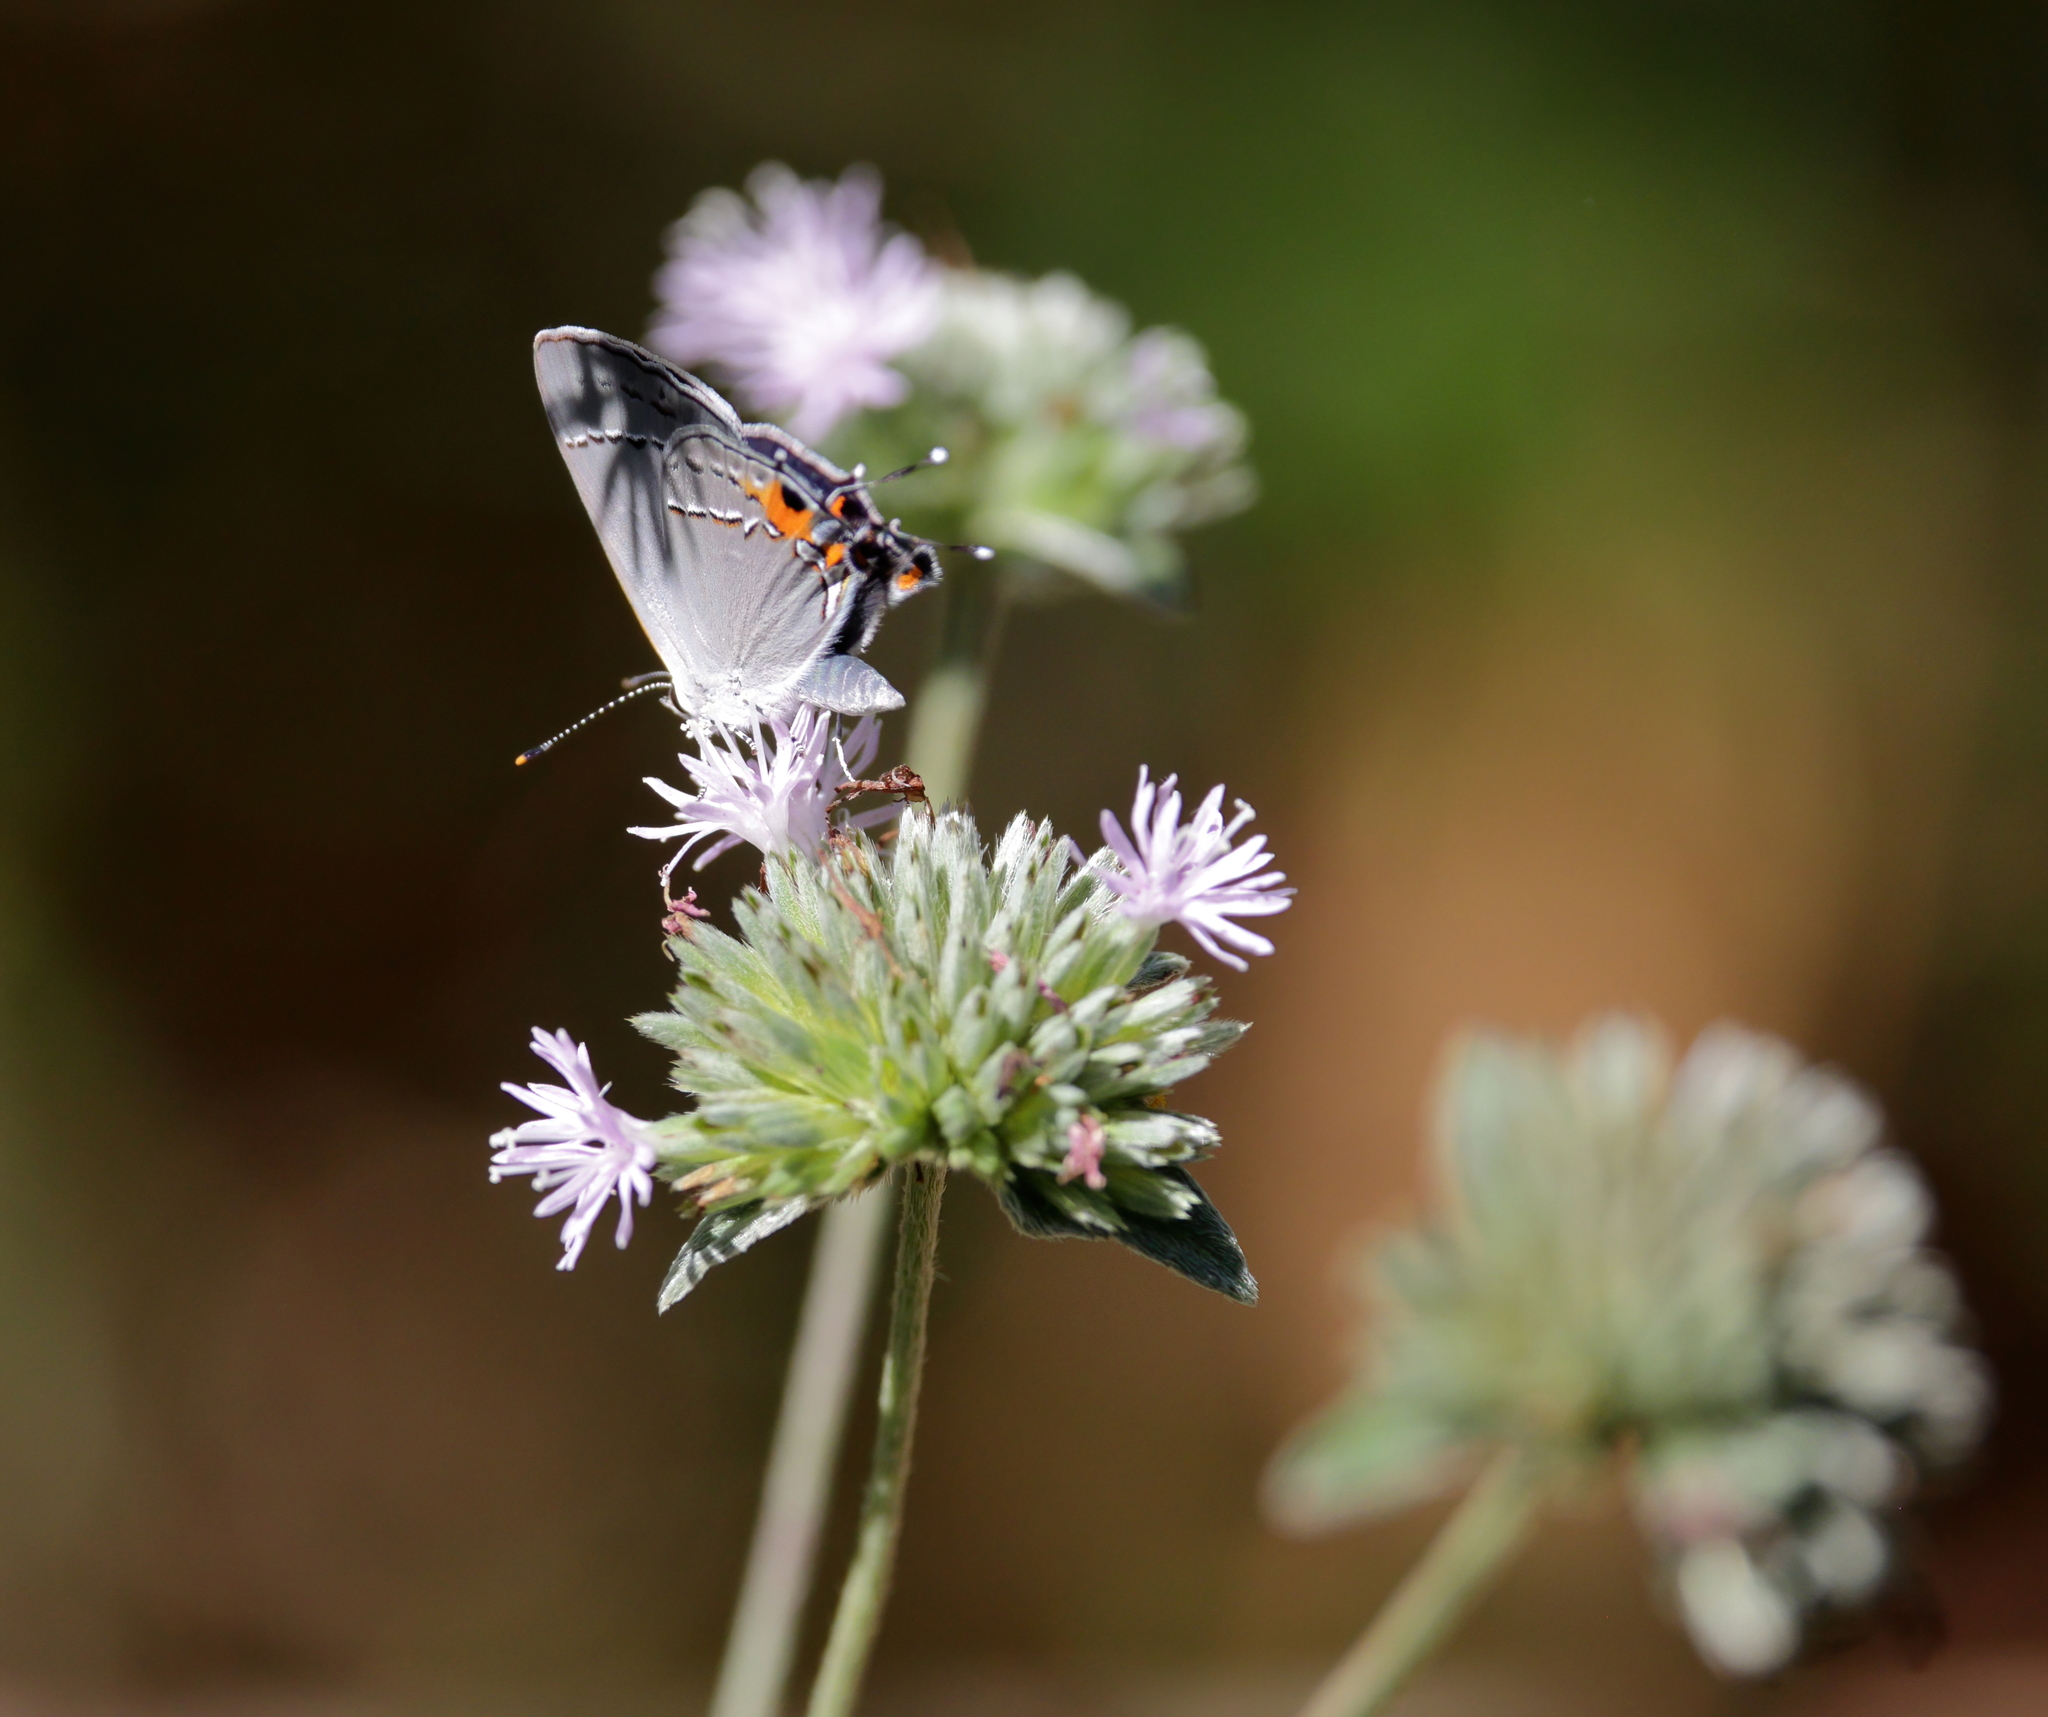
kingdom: Animalia
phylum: Arthropoda
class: Insecta
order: Lepidoptera
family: Lycaenidae
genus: Strymon
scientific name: Strymon melinus
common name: Gray hairstreak
